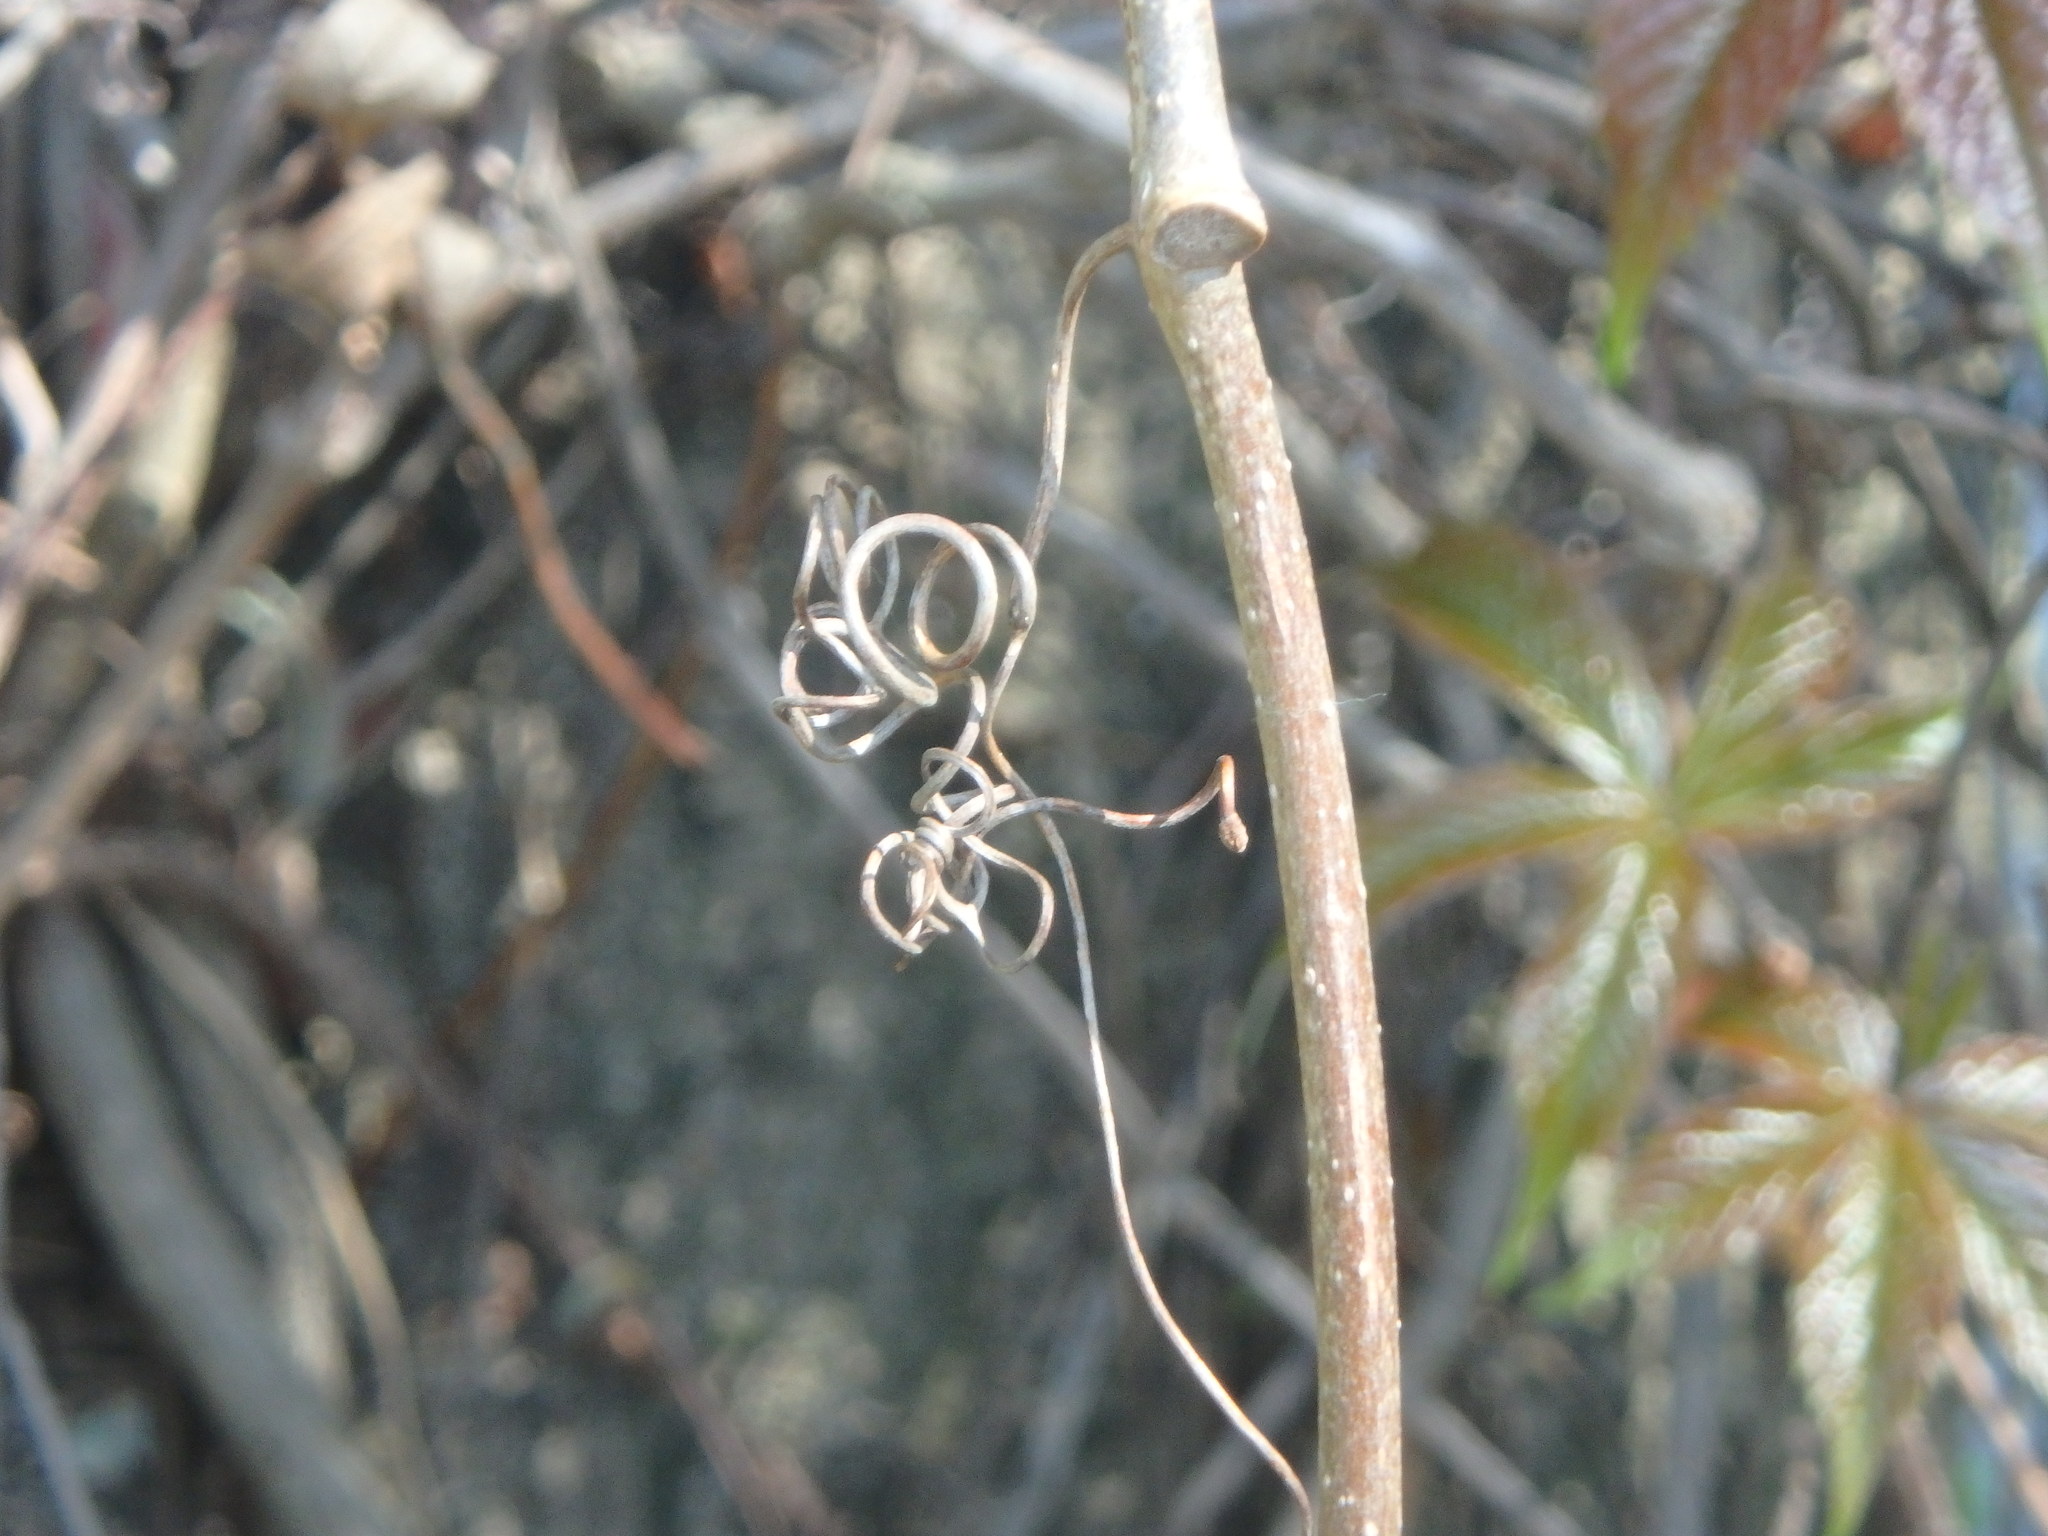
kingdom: Plantae
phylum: Tracheophyta
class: Magnoliopsida
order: Vitales
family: Vitaceae
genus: Parthenocissus
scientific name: Parthenocissus quinquefolia
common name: Virginia-creeper
